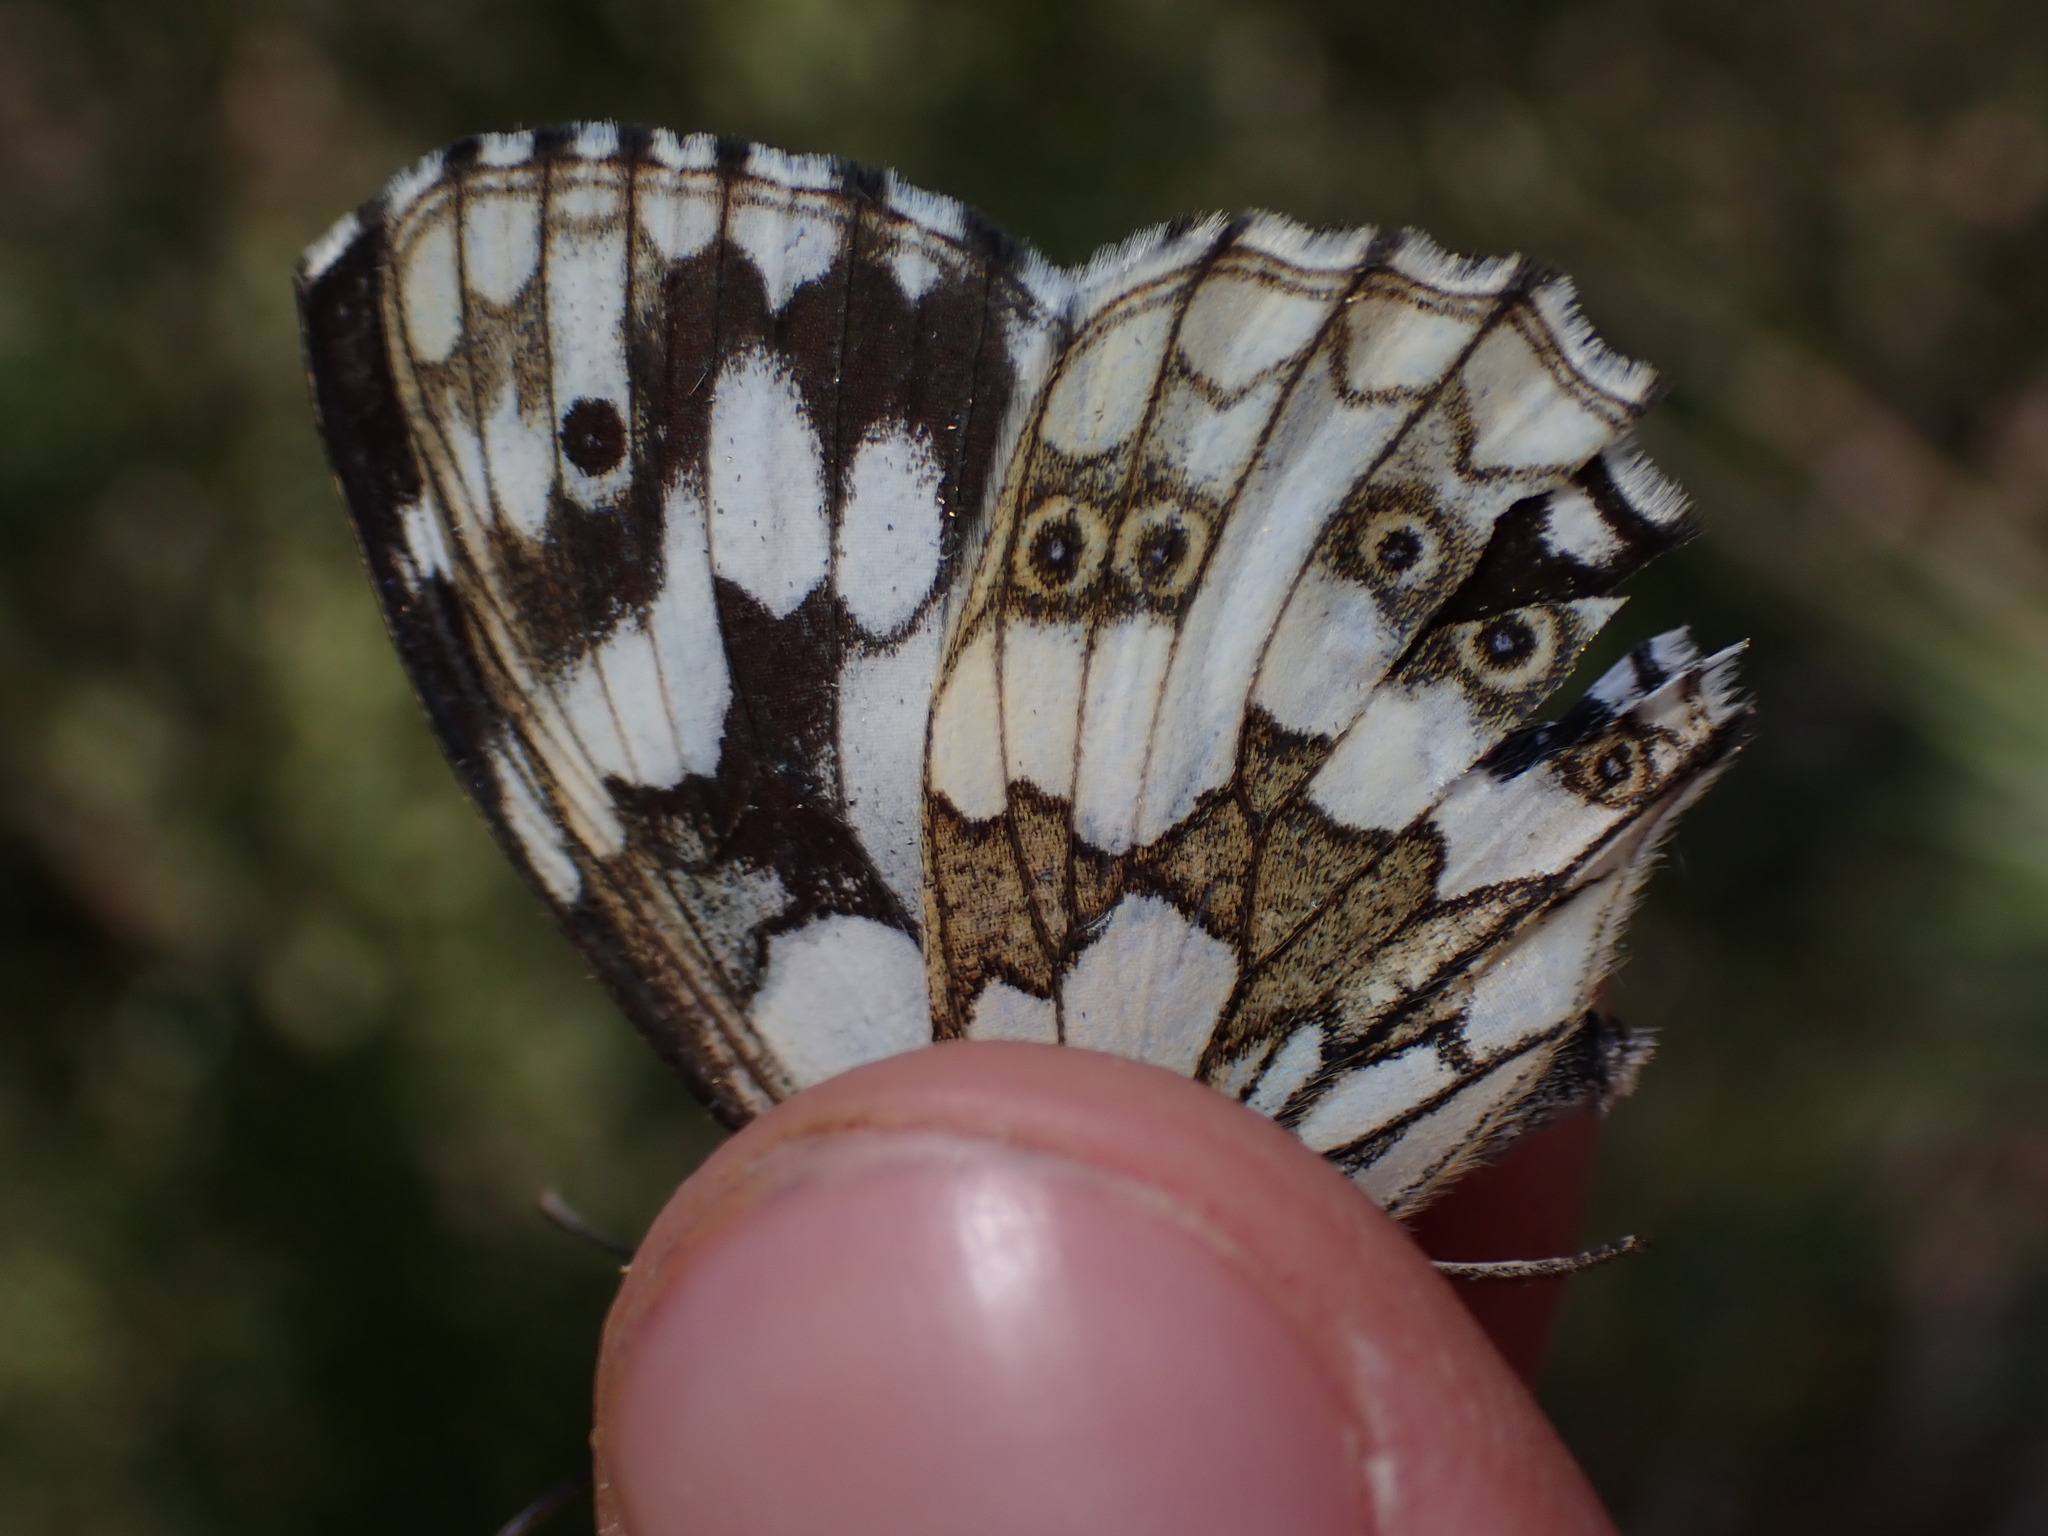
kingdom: Animalia
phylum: Arthropoda
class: Insecta
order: Lepidoptera
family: Nymphalidae
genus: Melanargia
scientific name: Melanargia galathea
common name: Marbled white
